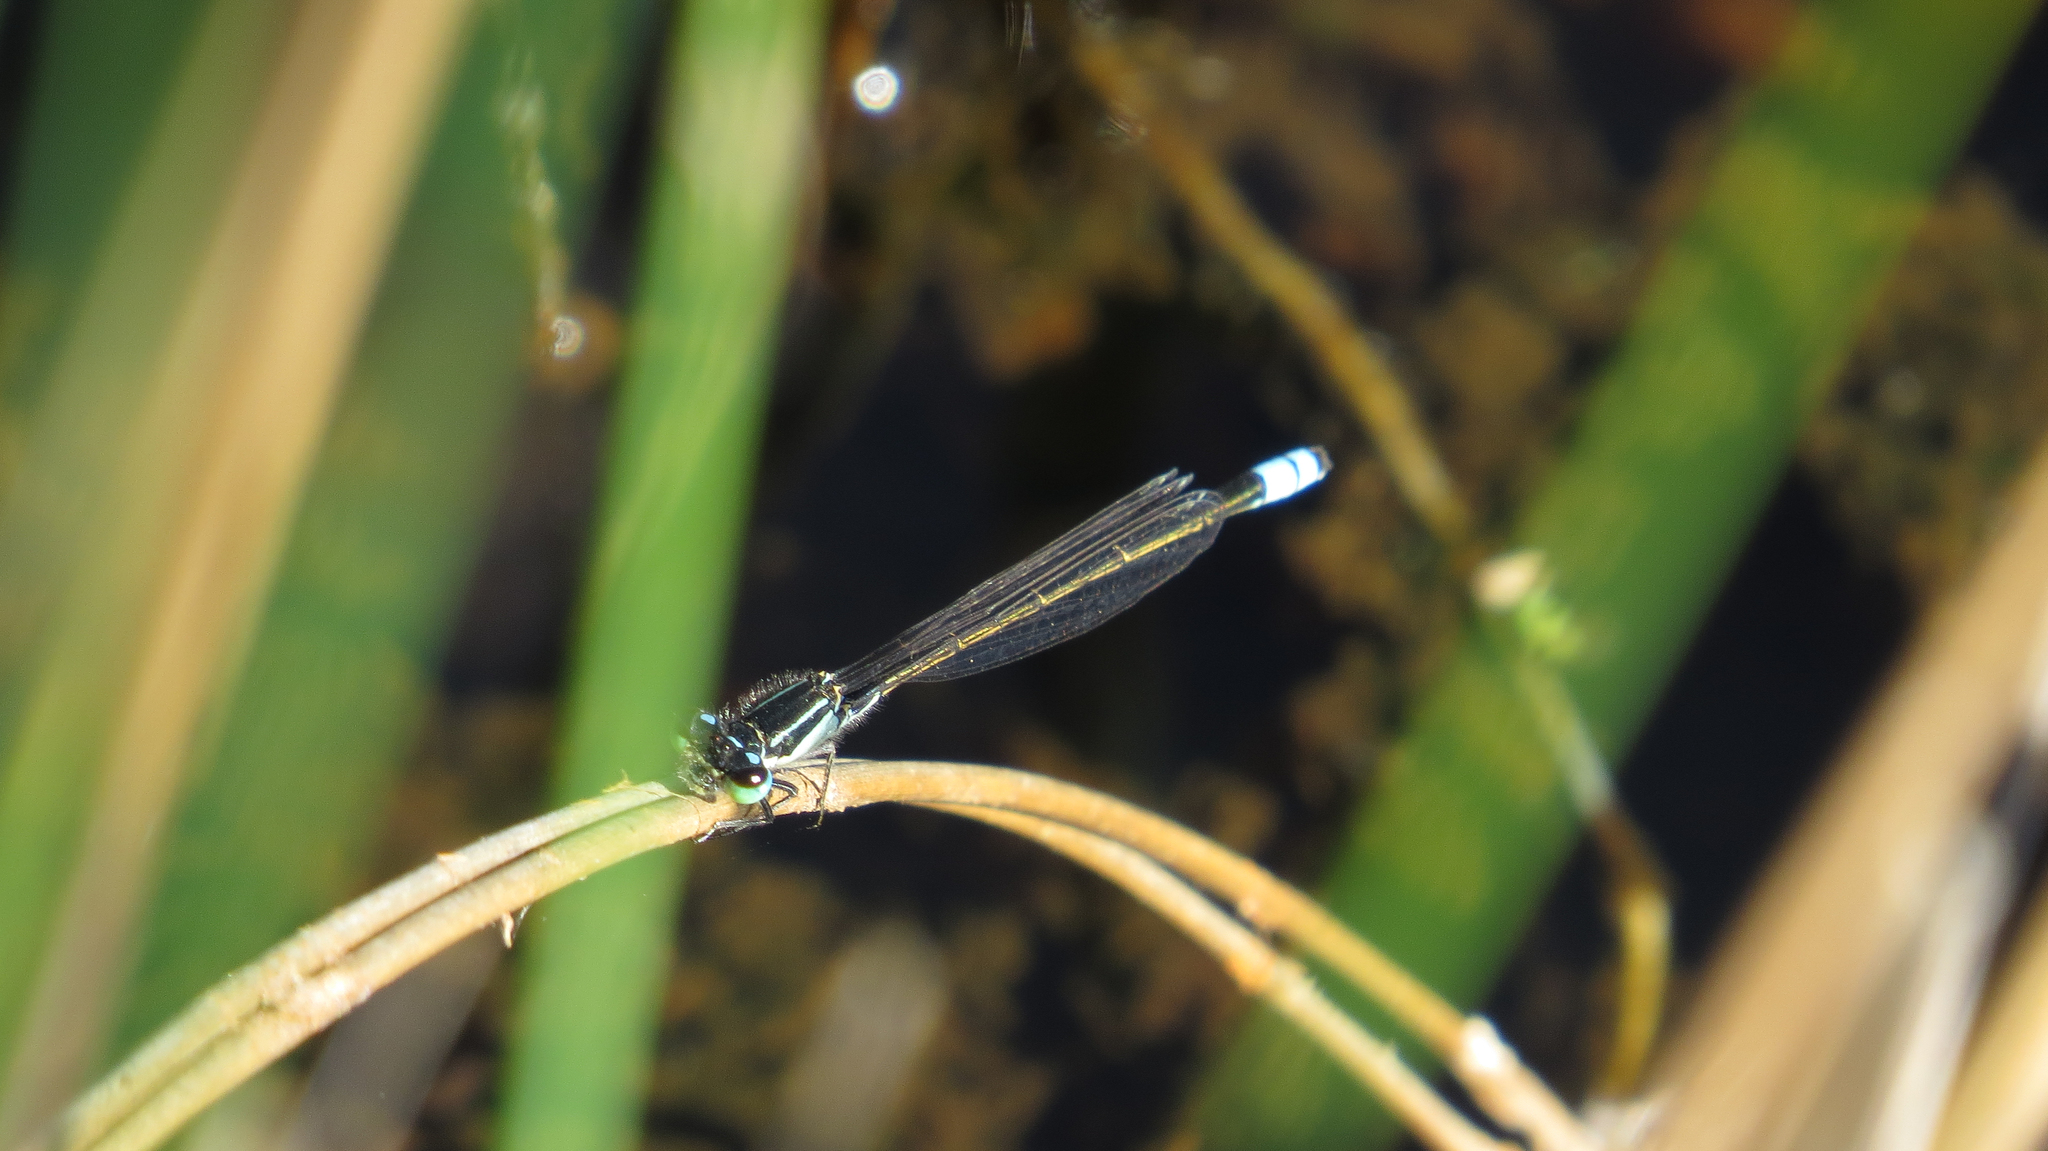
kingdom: Animalia
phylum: Arthropoda
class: Insecta
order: Odonata
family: Coenagrionidae
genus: Ischnura
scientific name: Ischnura heterosticta
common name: Common bluetail
